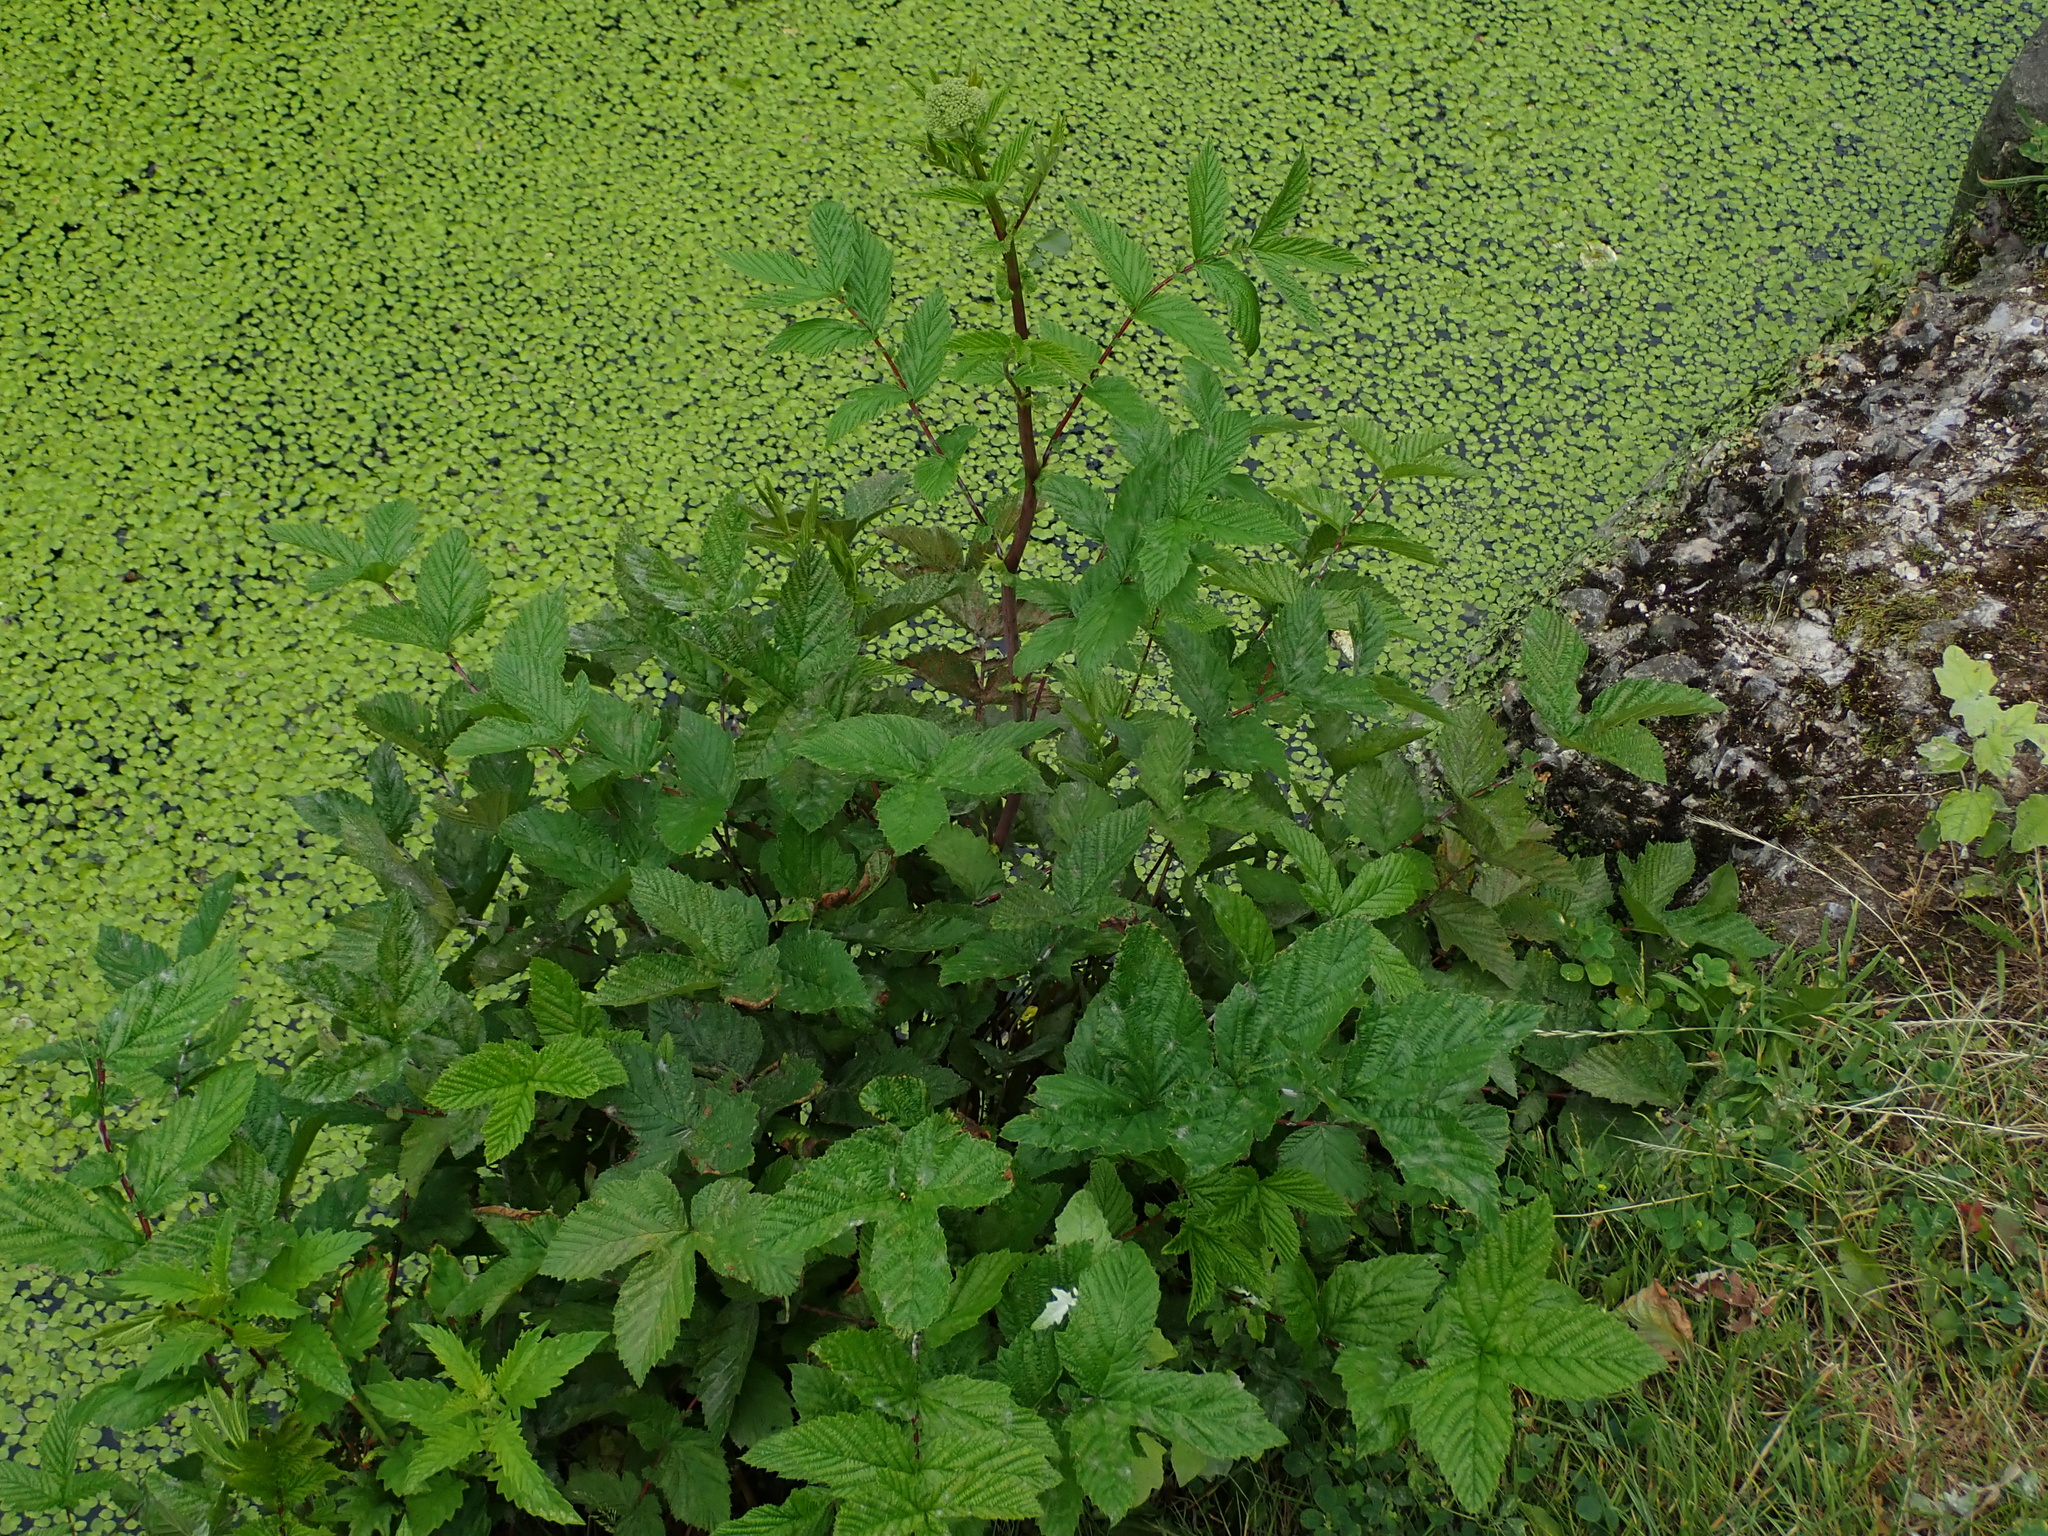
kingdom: Plantae
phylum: Tracheophyta
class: Magnoliopsida
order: Rosales
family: Rosaceae
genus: Filipendula
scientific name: Filipendula ulmaria
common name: Meadowsweet
